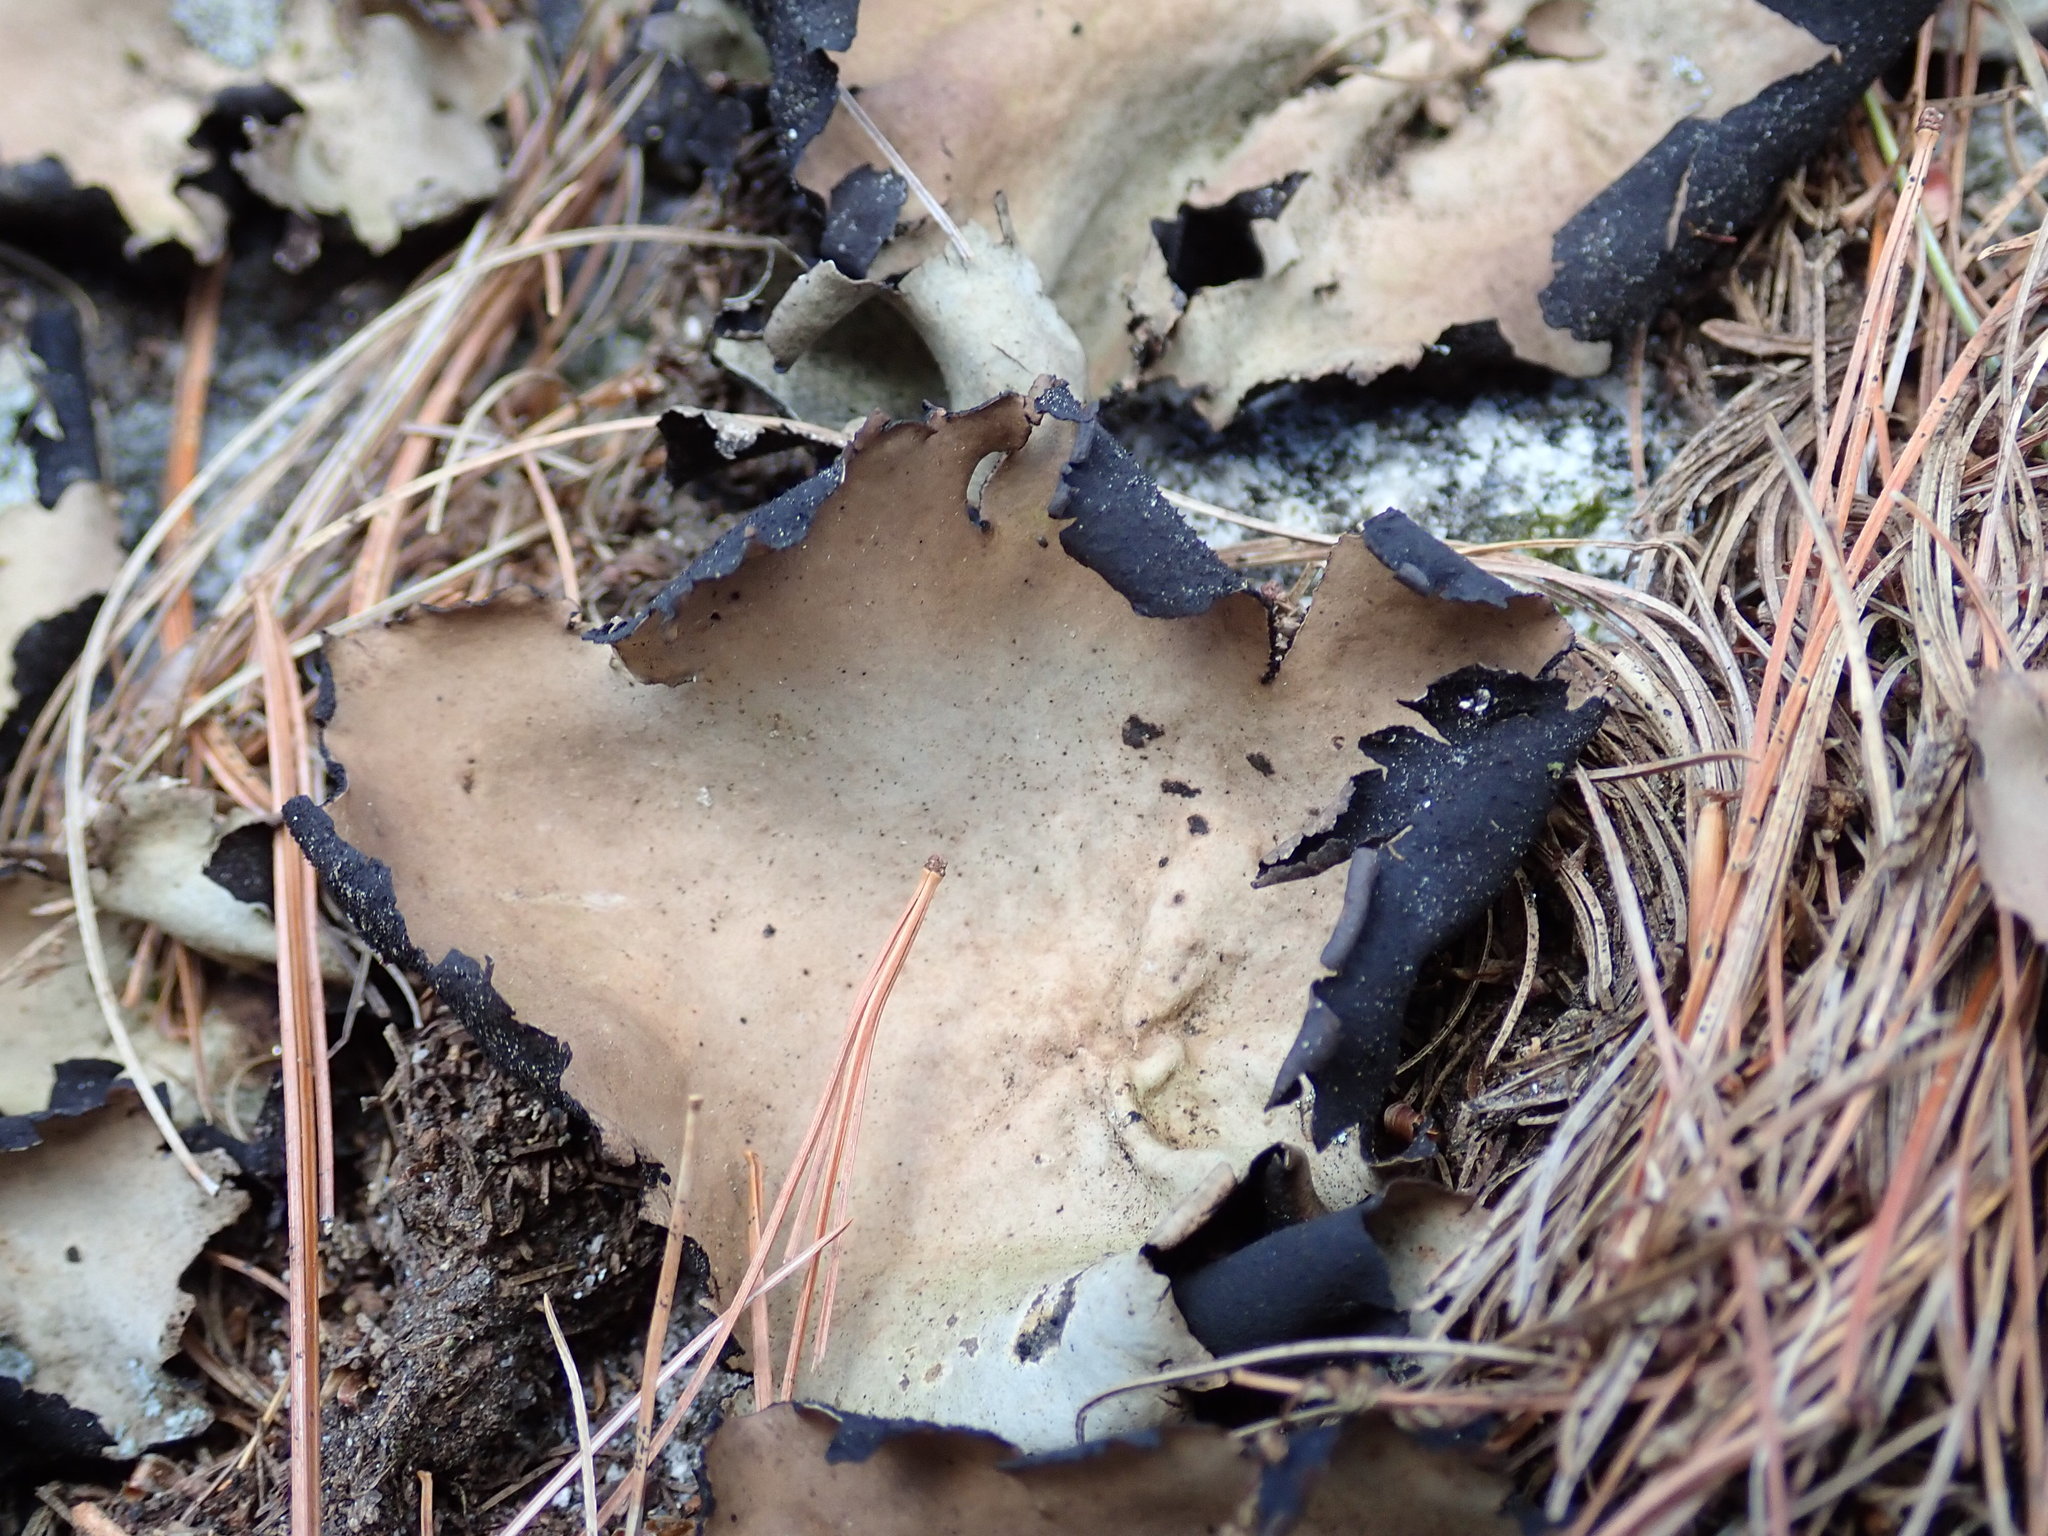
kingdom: Fungi
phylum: Ascomycota
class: Lecanoromycetes
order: Umbilicariales
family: Umbilicariaceae
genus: Umbilicaria
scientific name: Umbilicaria mammulata
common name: Smooth rock tripe
